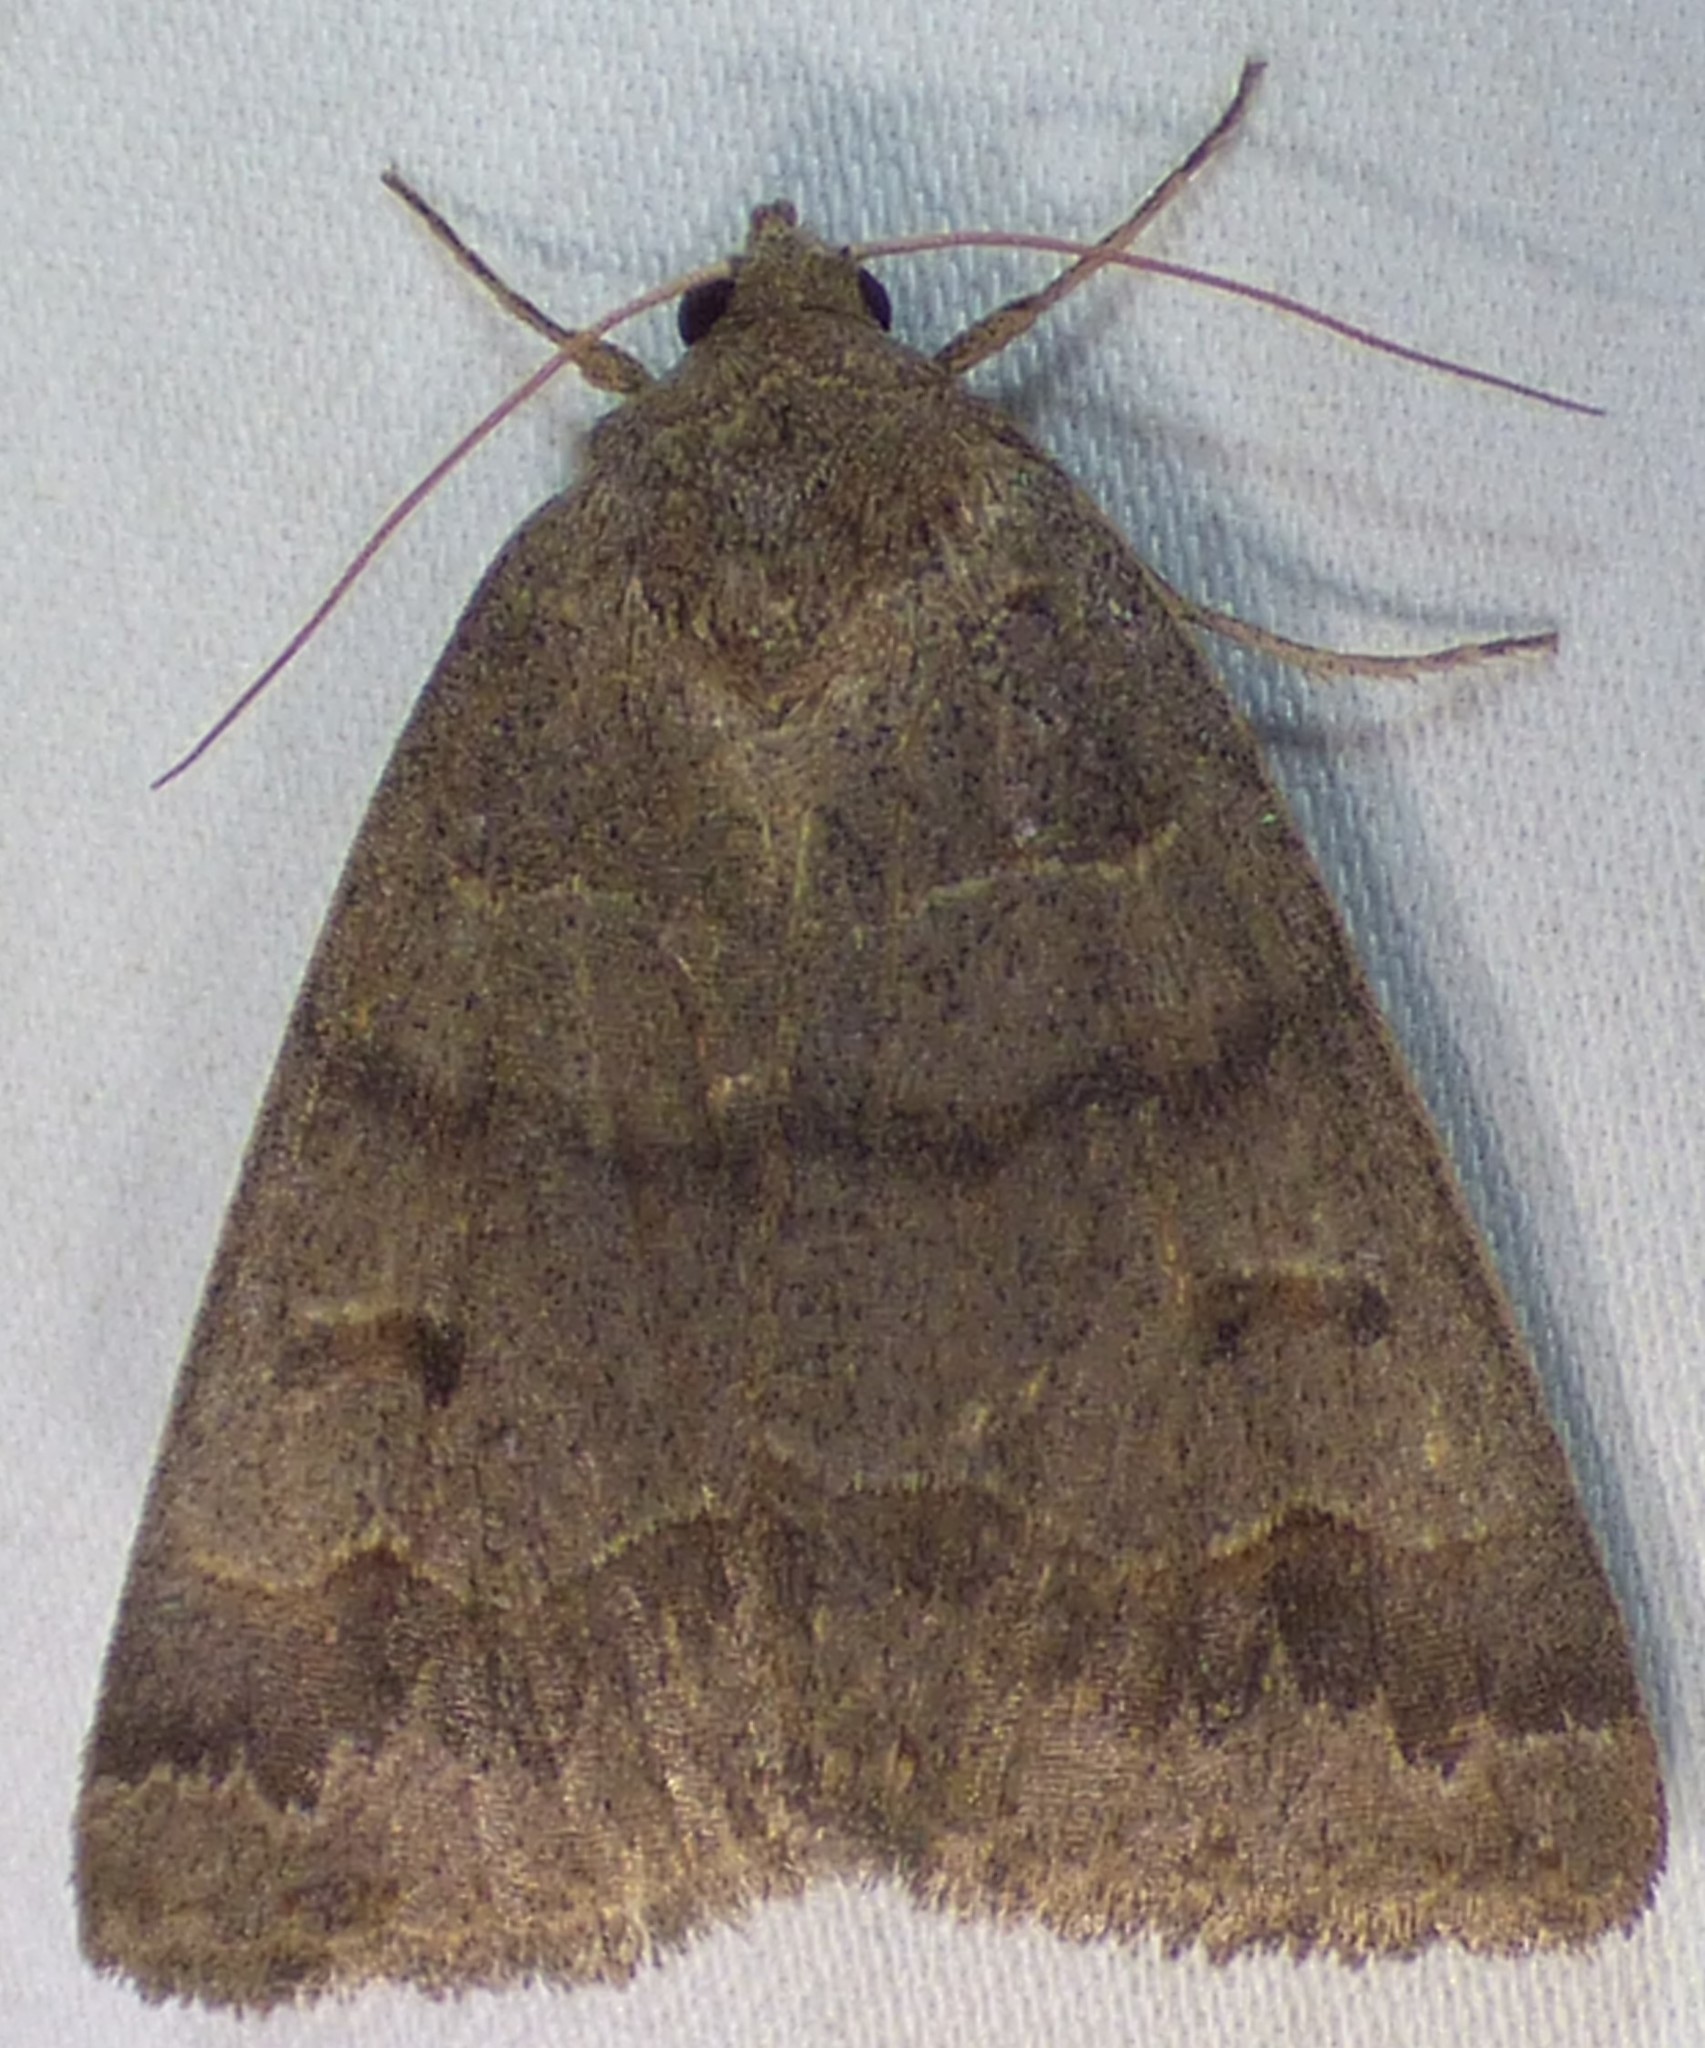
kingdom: Animalia
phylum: Arthropoda
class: Insecta
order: Lepidoptera
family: Erebidae
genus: Phoberia
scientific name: Phoberia atomaris
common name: Common oak moth
